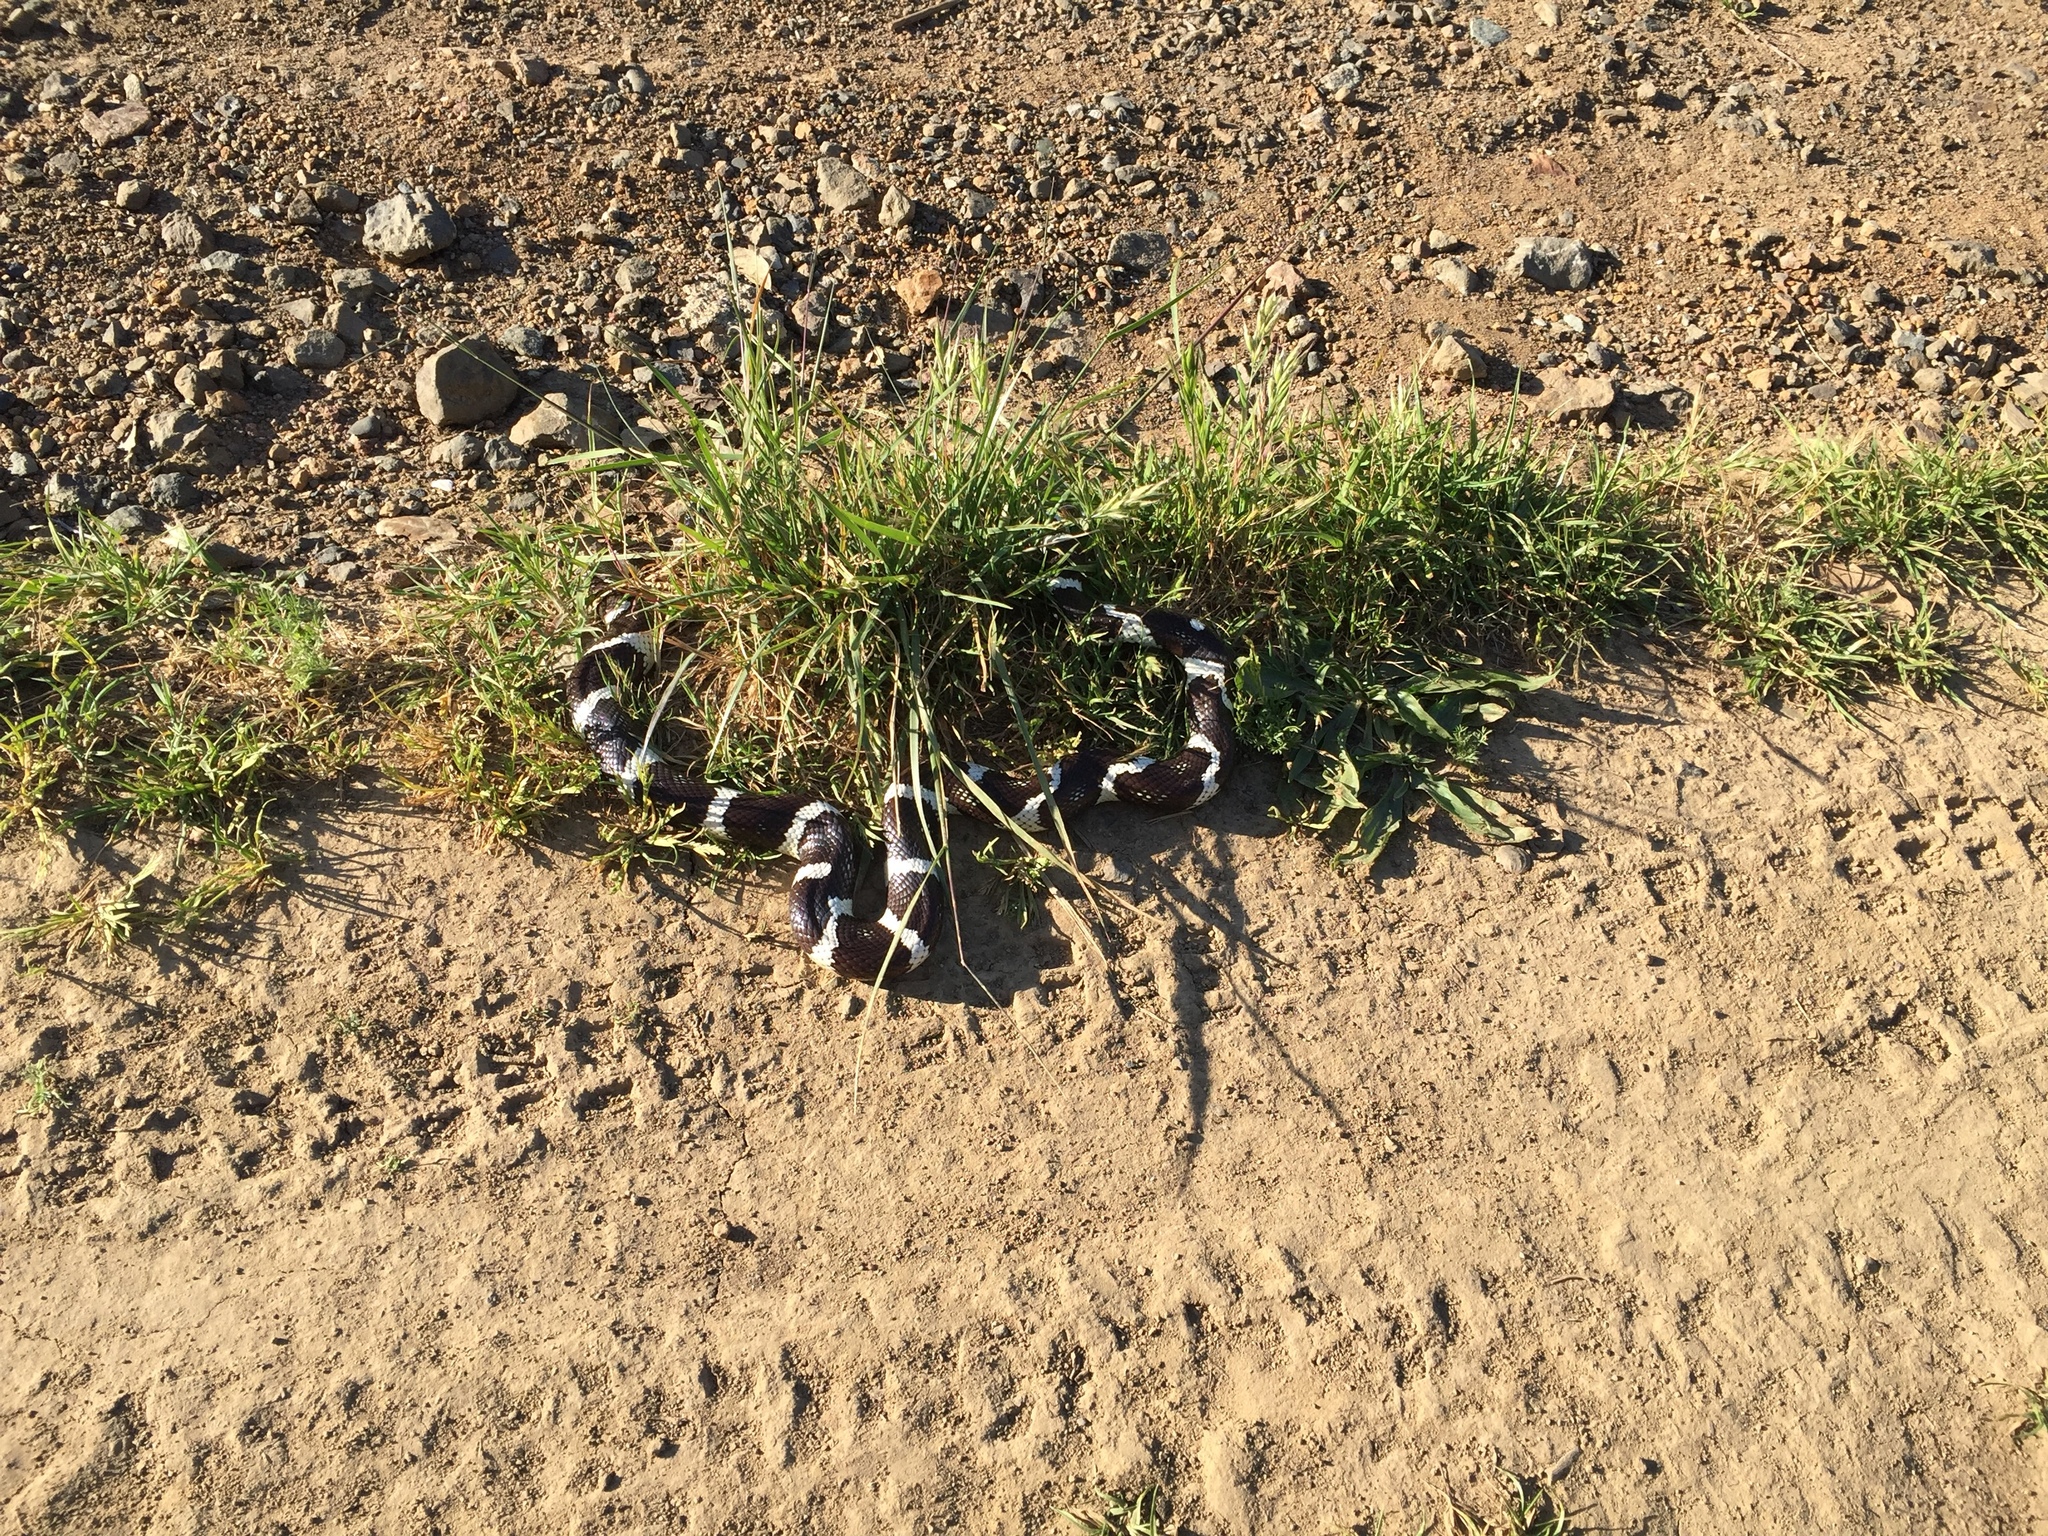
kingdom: Animalia
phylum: Chordata
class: Squamata
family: Colubridae
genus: Lampropeltis
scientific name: Lampropeltis californiae
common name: California kingsnake
